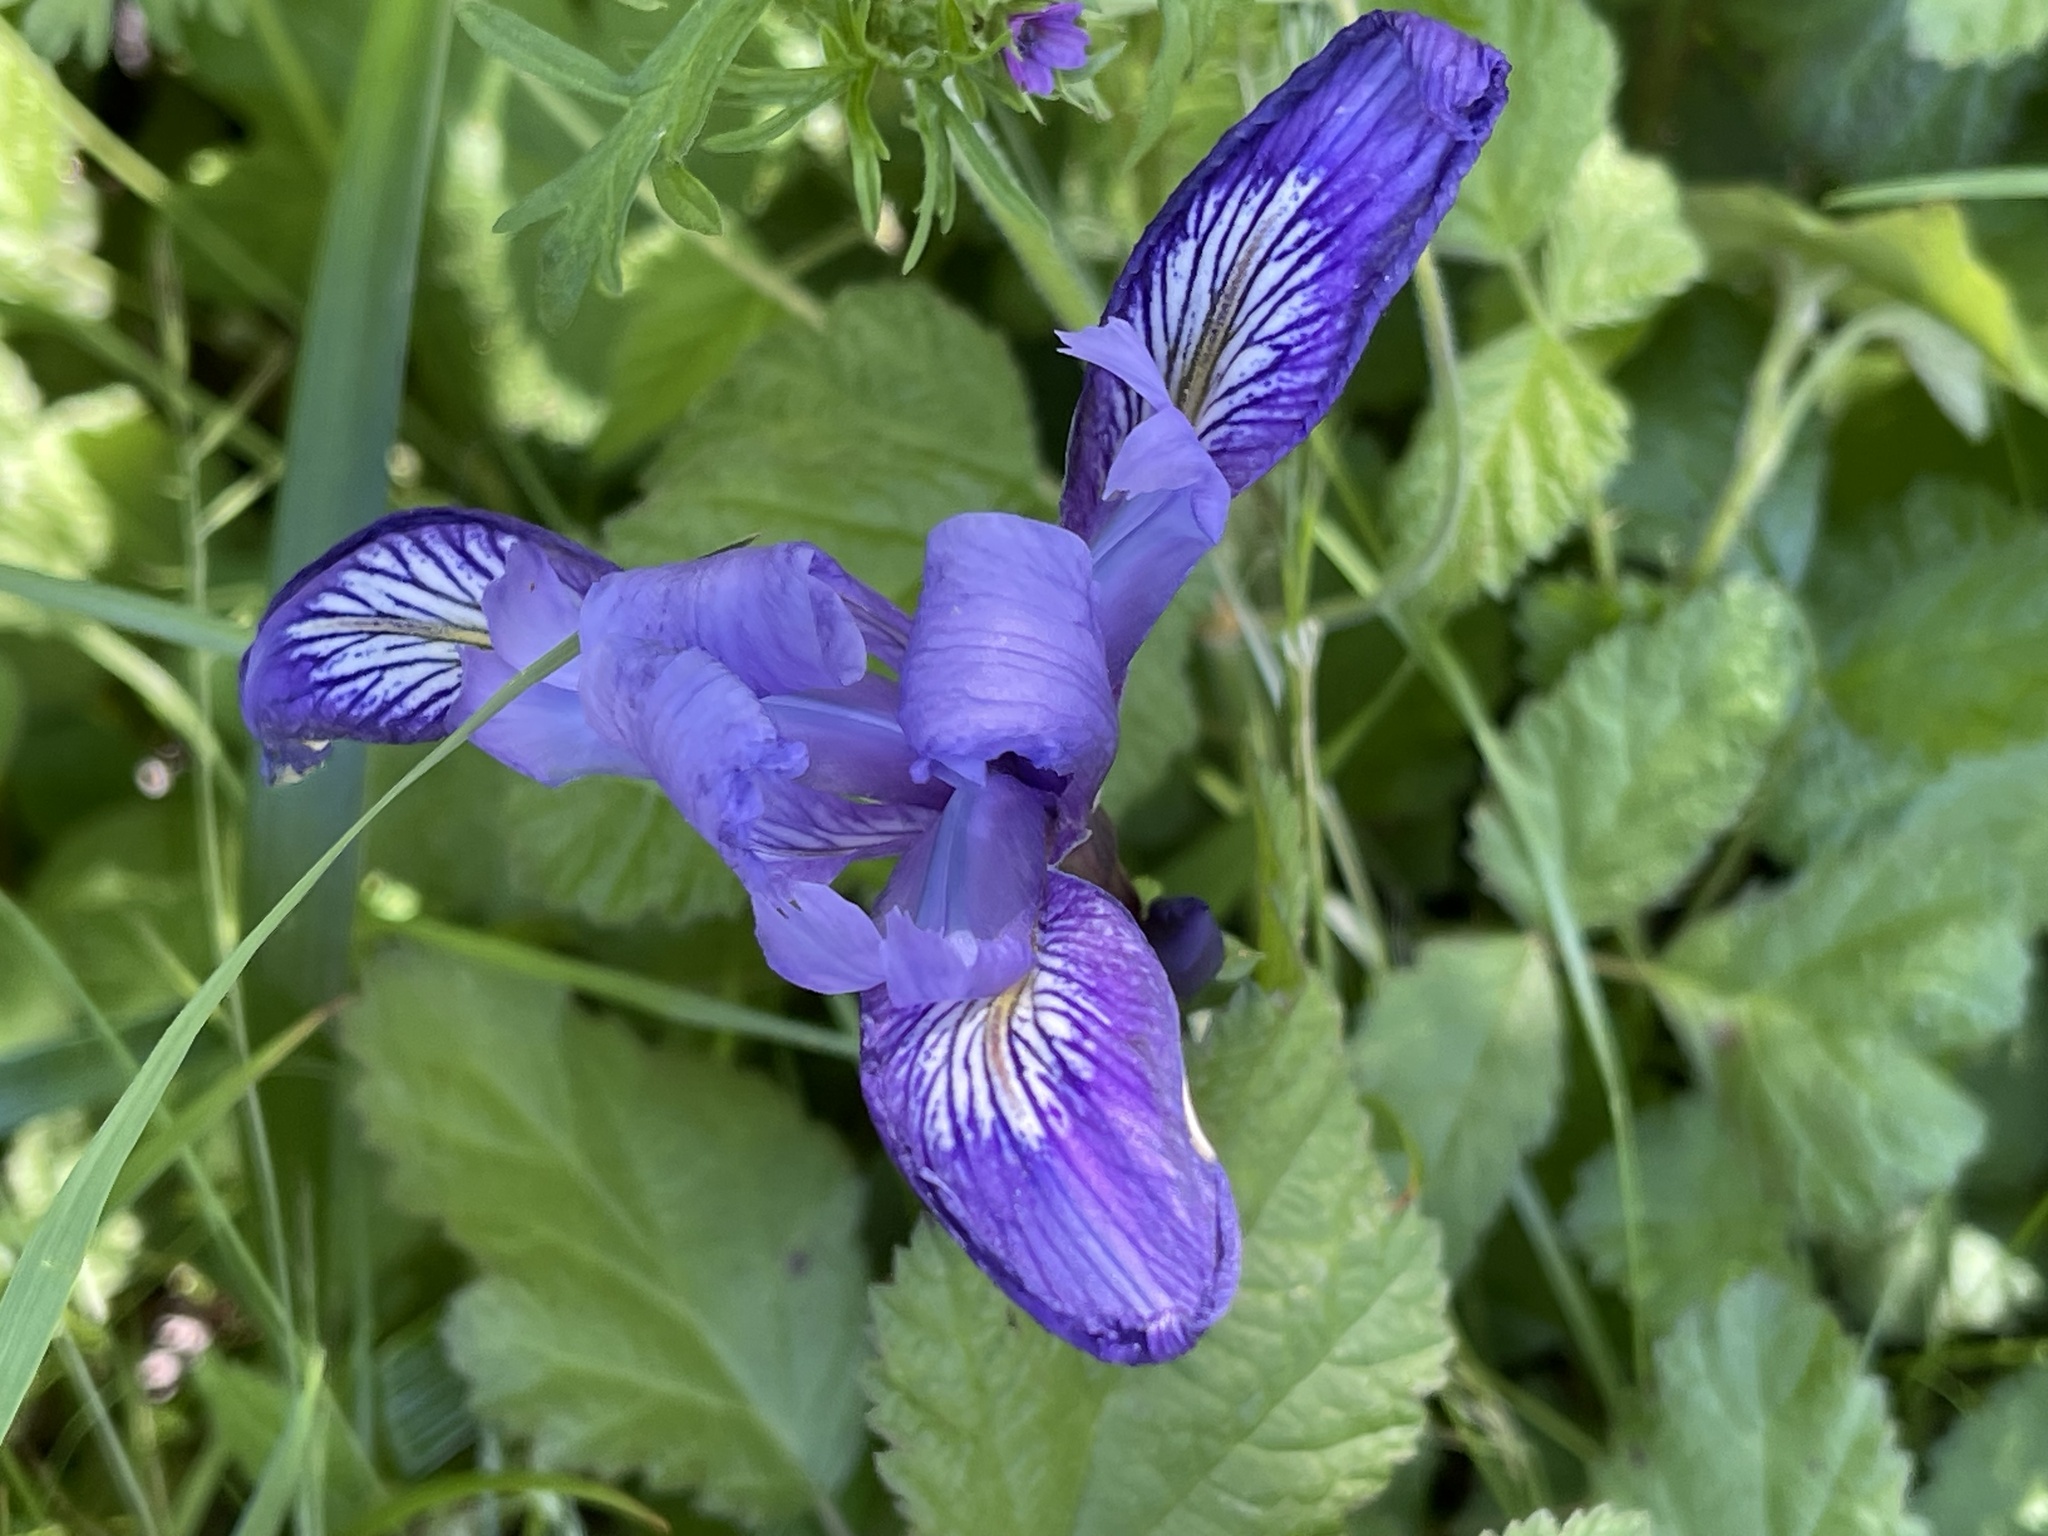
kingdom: Plantae
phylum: Tracheophyta
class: Liliopsida
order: Asparagales
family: Iridaceae
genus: Iris
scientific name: Iris douglasiana
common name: Marin iris
